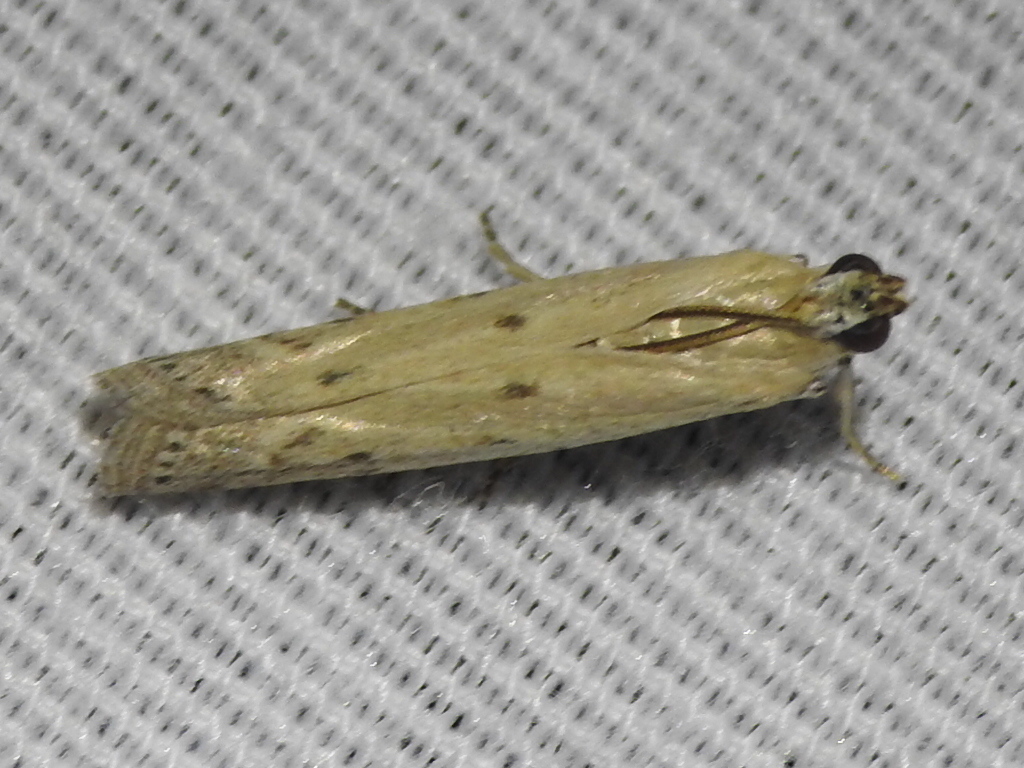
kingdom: Animalia
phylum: Arthropoda
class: Insecta
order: Lepidoptera
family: Pyralidae
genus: Homoeosoma
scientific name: Homoeosoma electella
